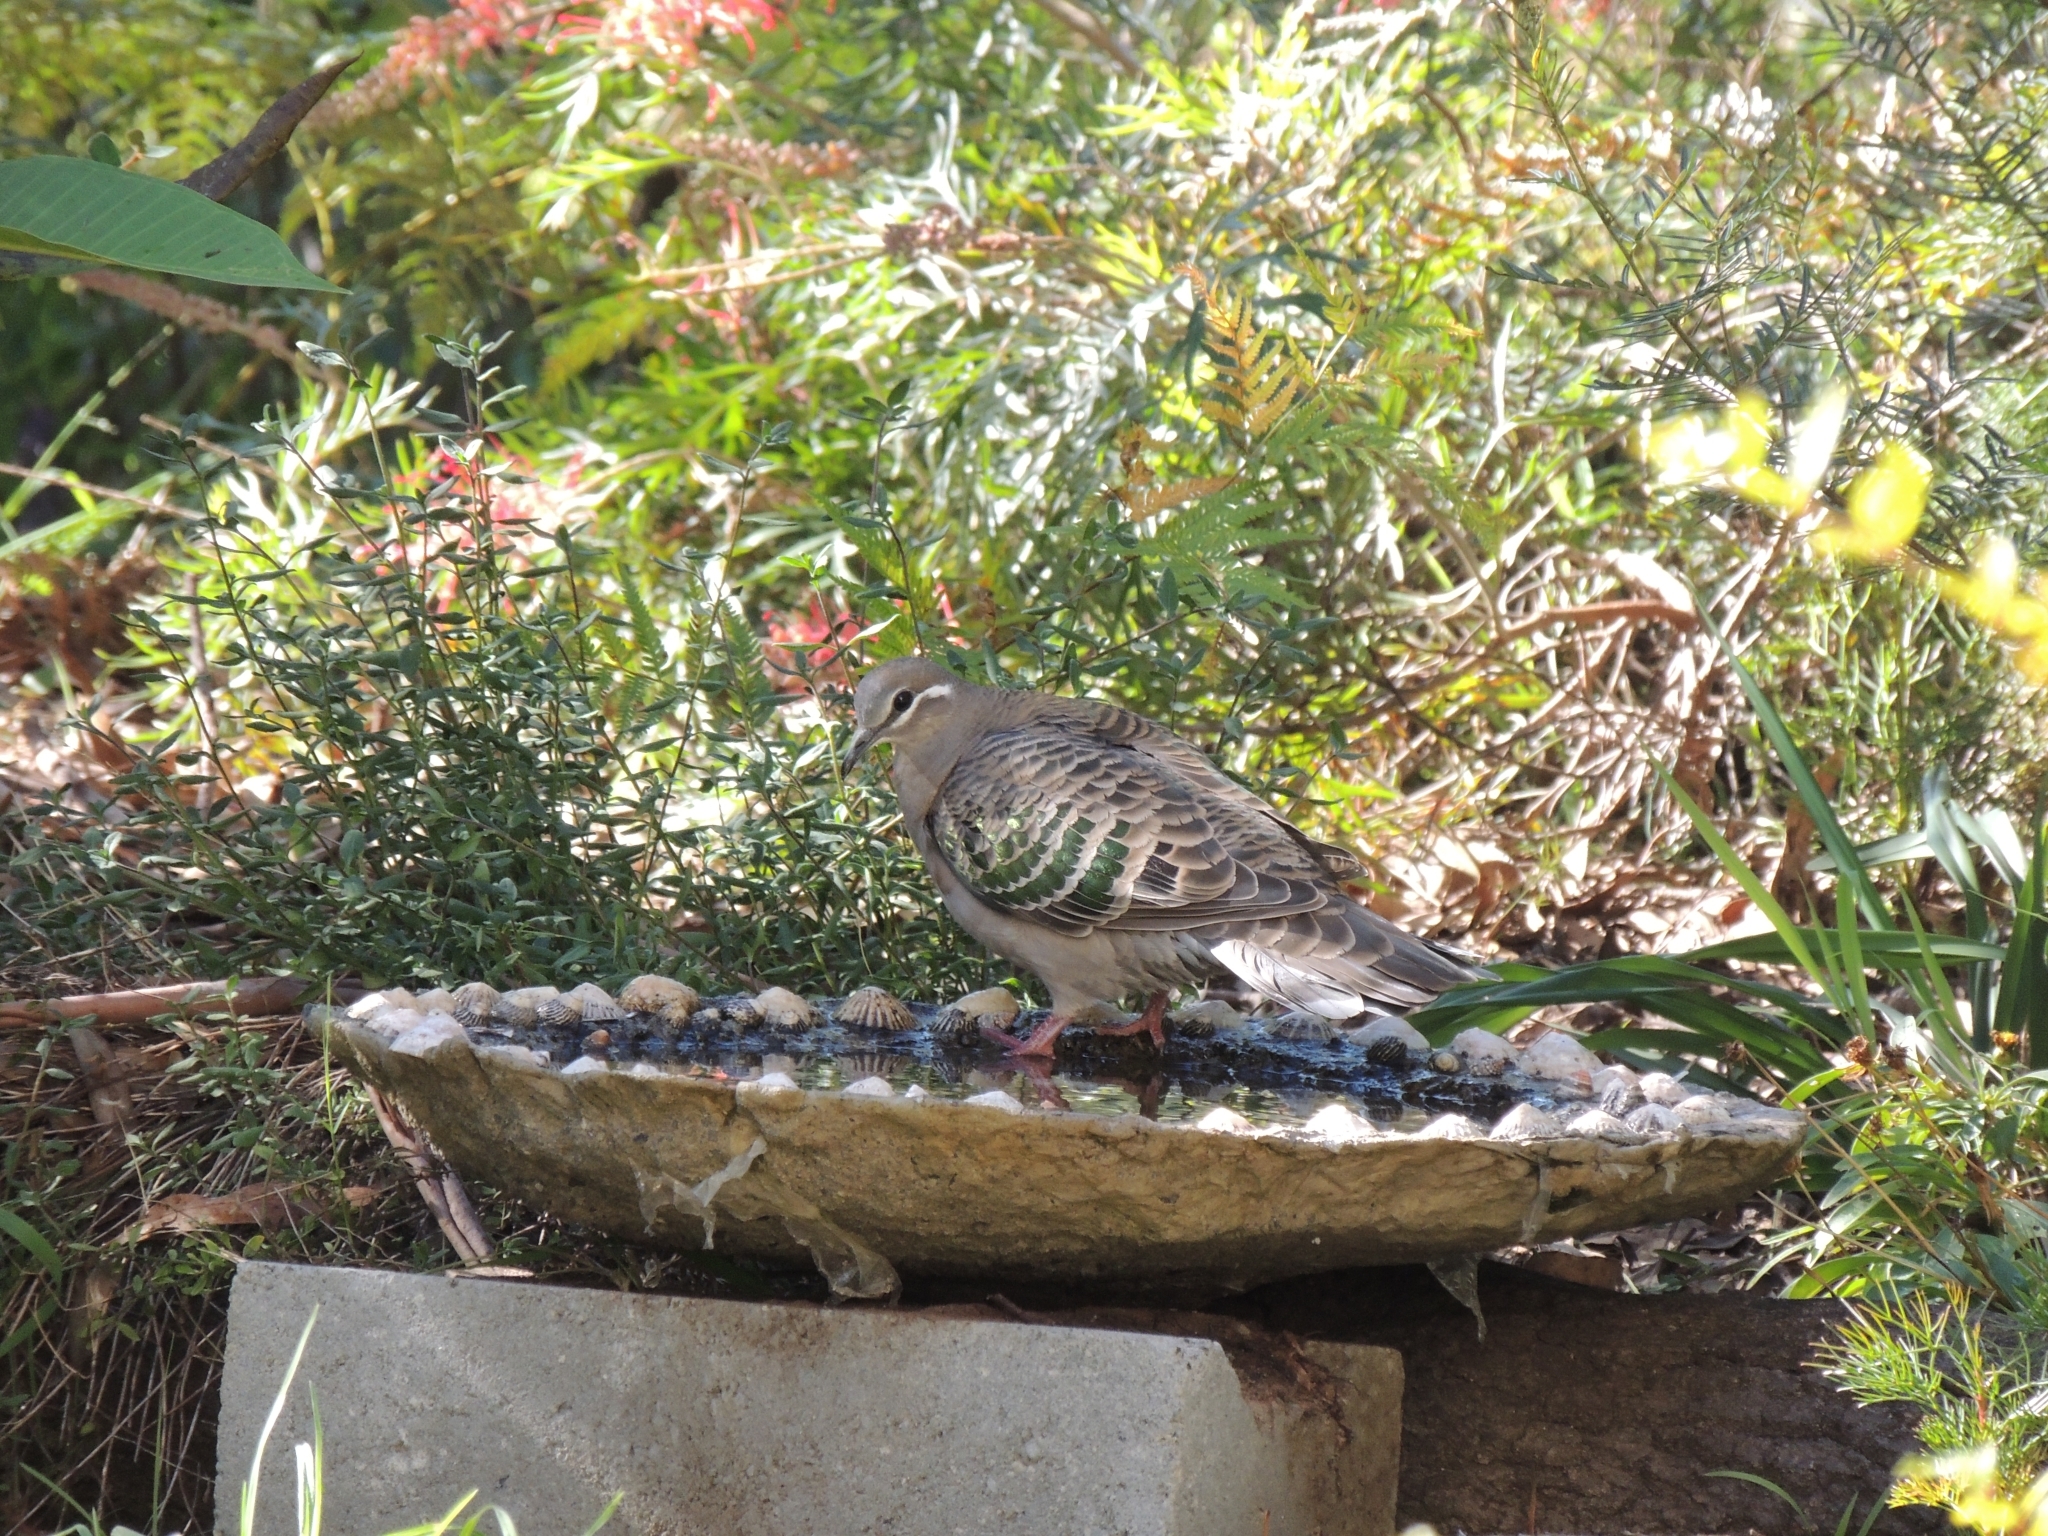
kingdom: Animalia
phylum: Chordata
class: Aves
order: Columbiformes
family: Columbidae
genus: Phaps
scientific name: Phaps chalcoptera
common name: Common bronzewing
